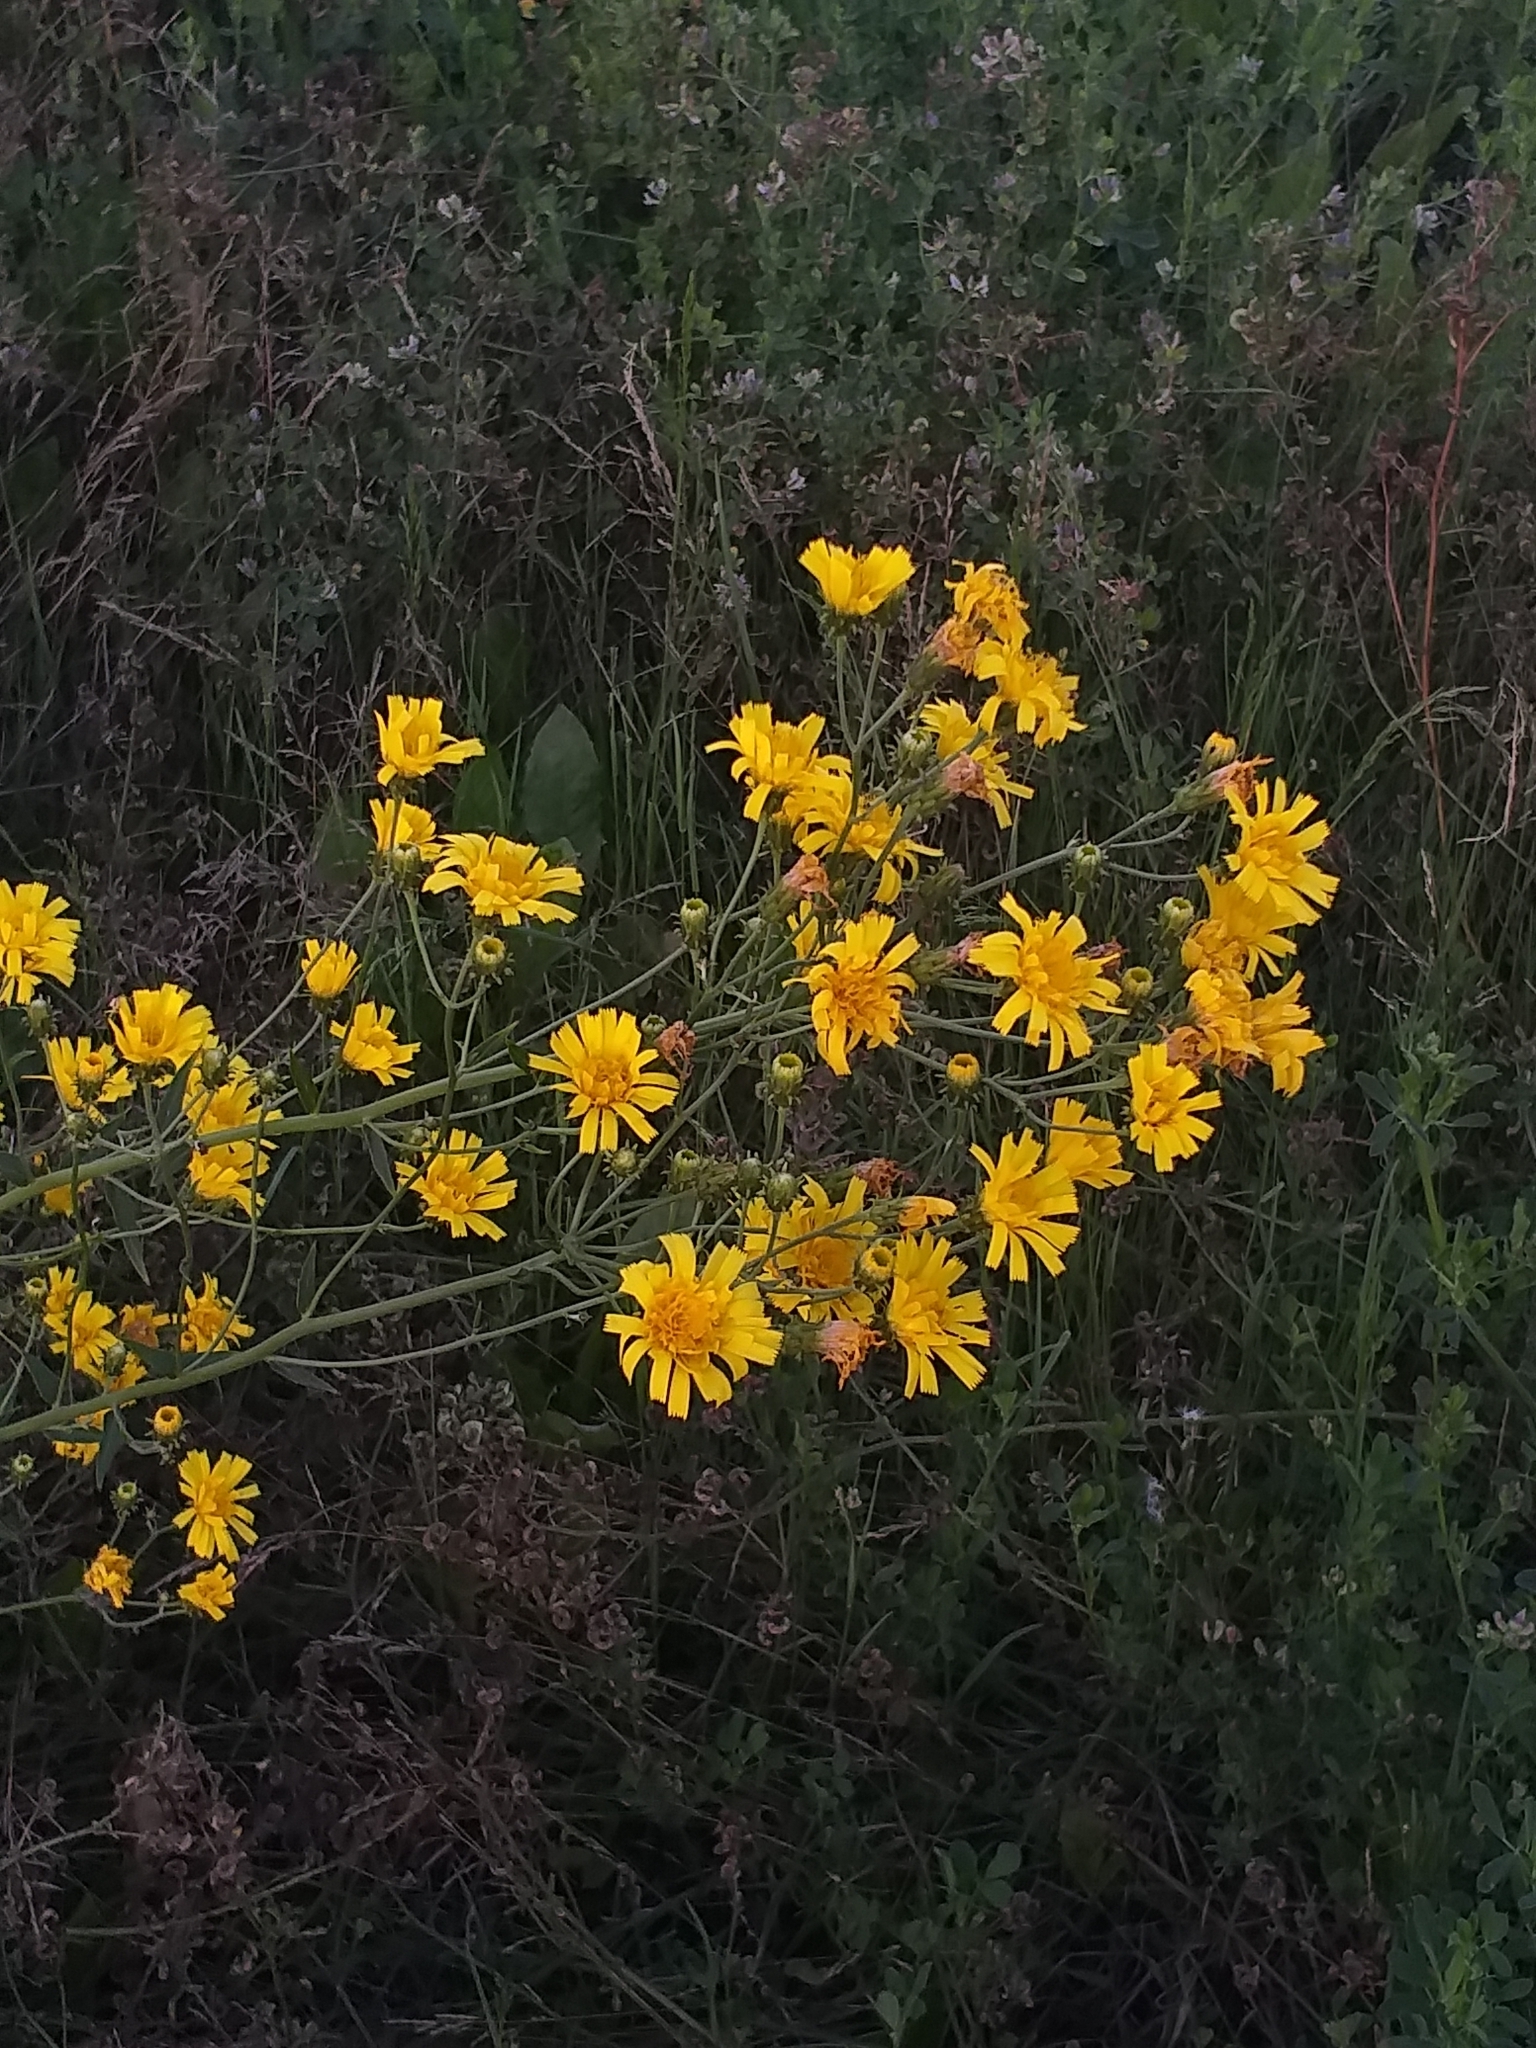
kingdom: Plantae
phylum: Tracheophyta
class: Magnoliopsida
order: Asterales
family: Asteraceae
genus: Hieracium
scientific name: Hieracium umbellatum
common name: Northern hawkweed
